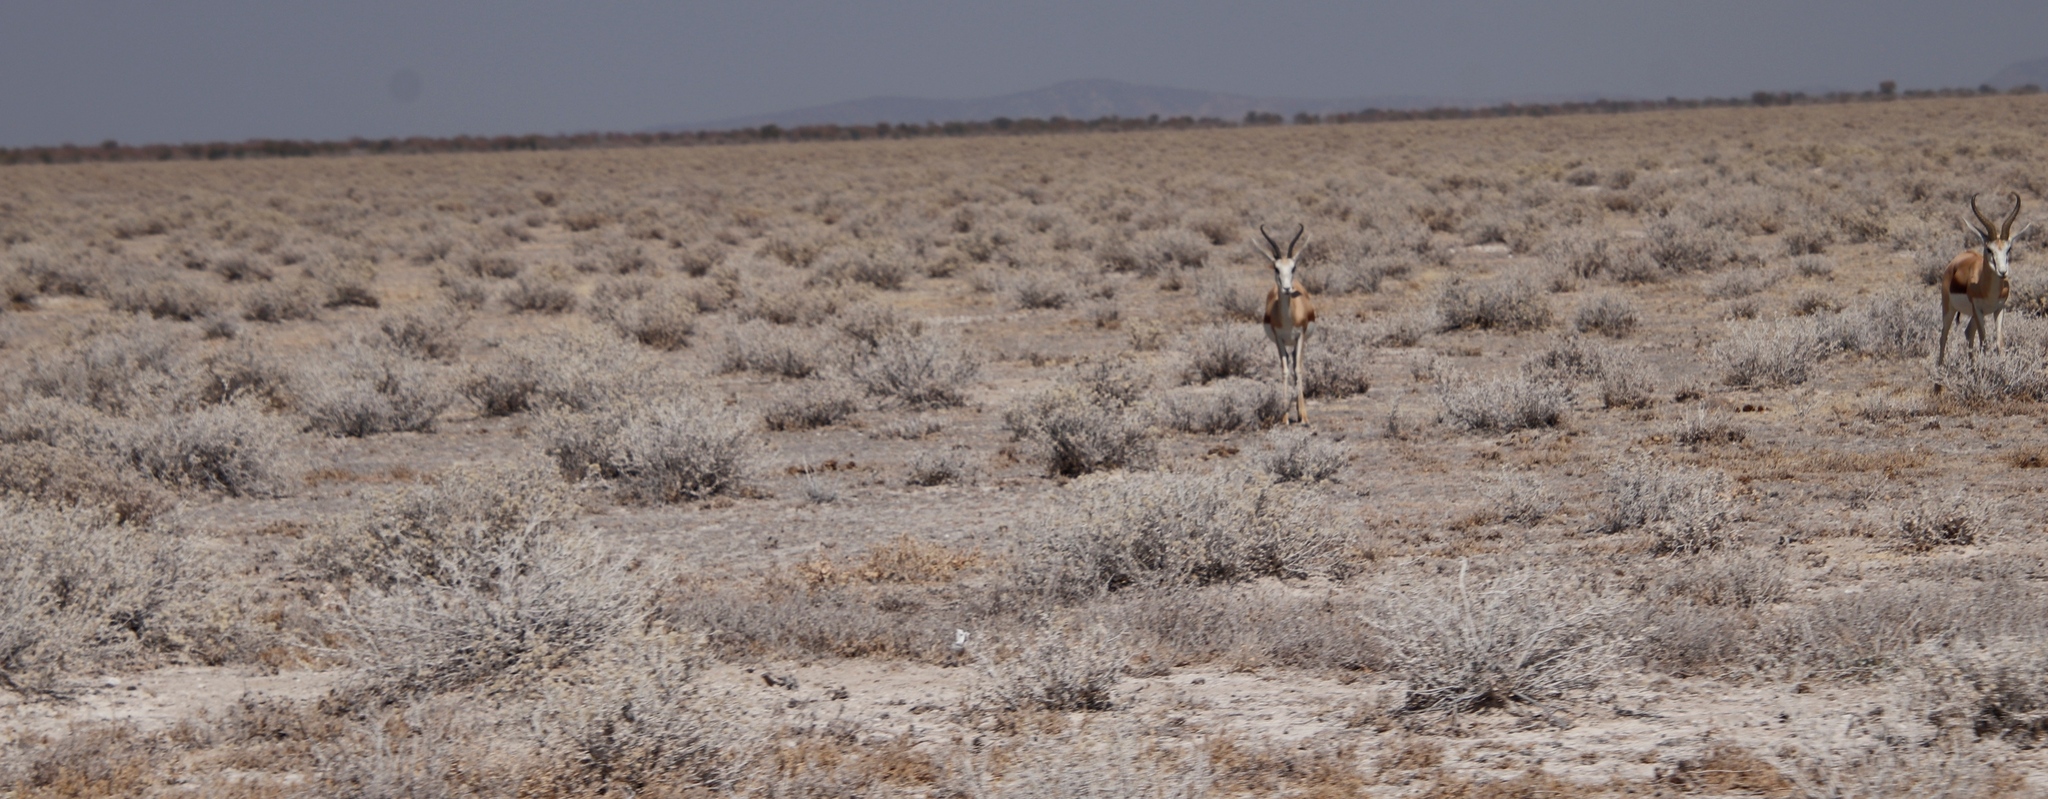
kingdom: Animalia
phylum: Chordata
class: Mammalia
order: Artiodactyla
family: Bovidae
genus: Antidorcas
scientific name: Antidorcas marsupialis
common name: Springbok
